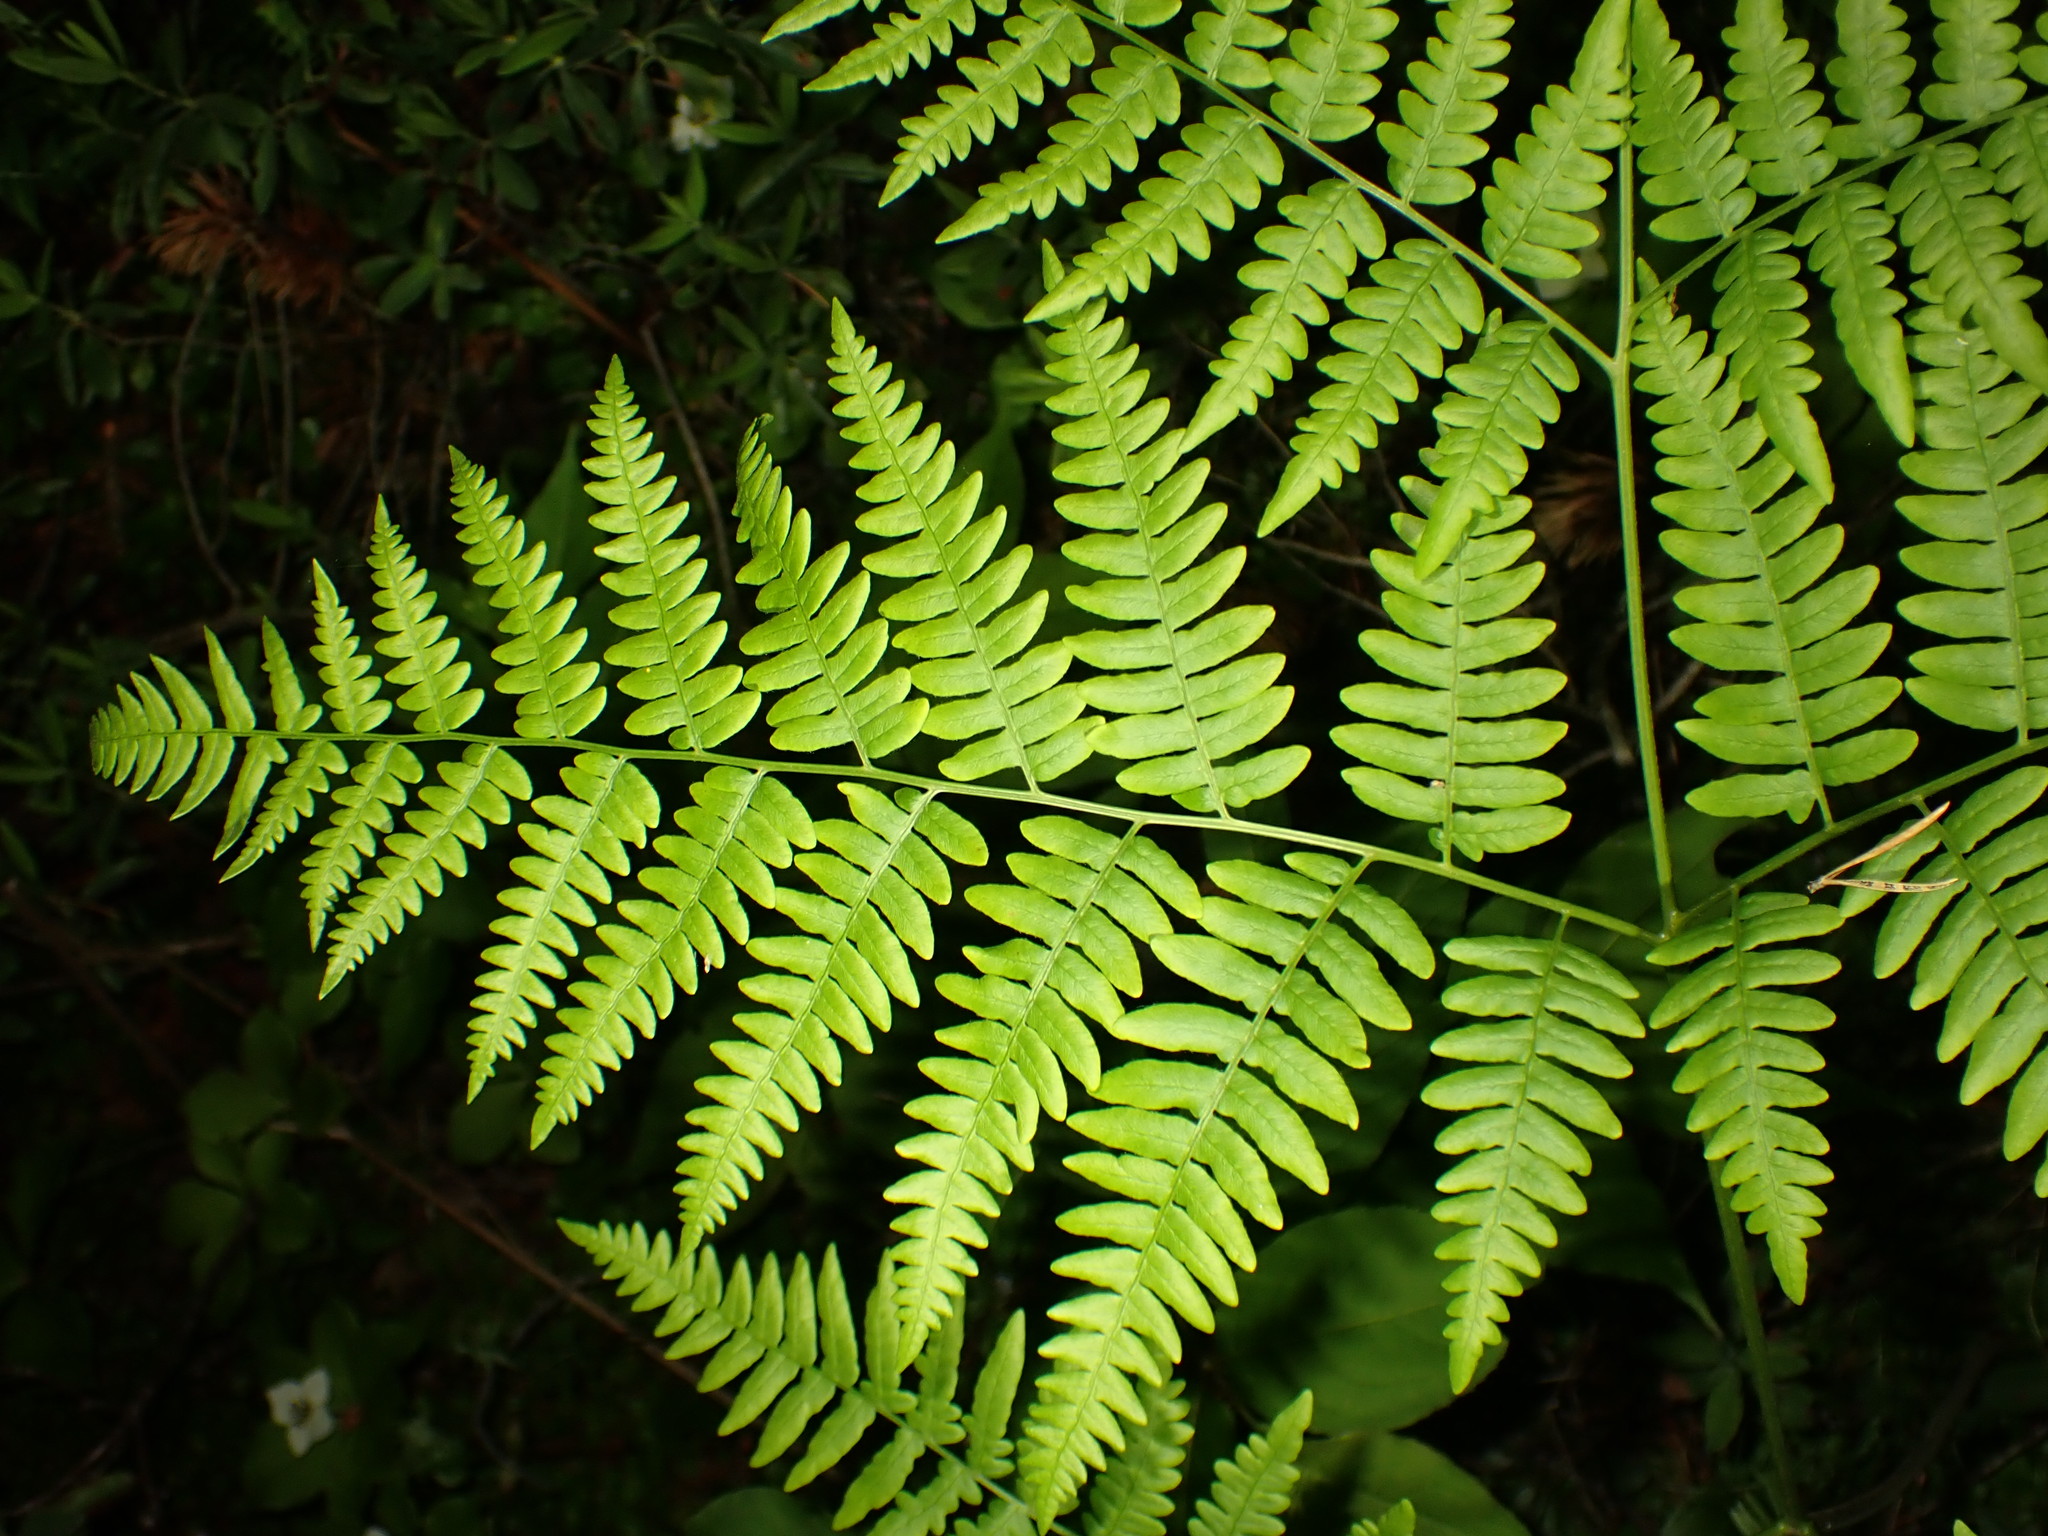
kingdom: Plantae
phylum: Tracheophyta
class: Polypodiopsida
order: Polypodiales
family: Dennstaedtiaceae
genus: Pteridium
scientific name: Pteridium aquilinum
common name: Bracken
